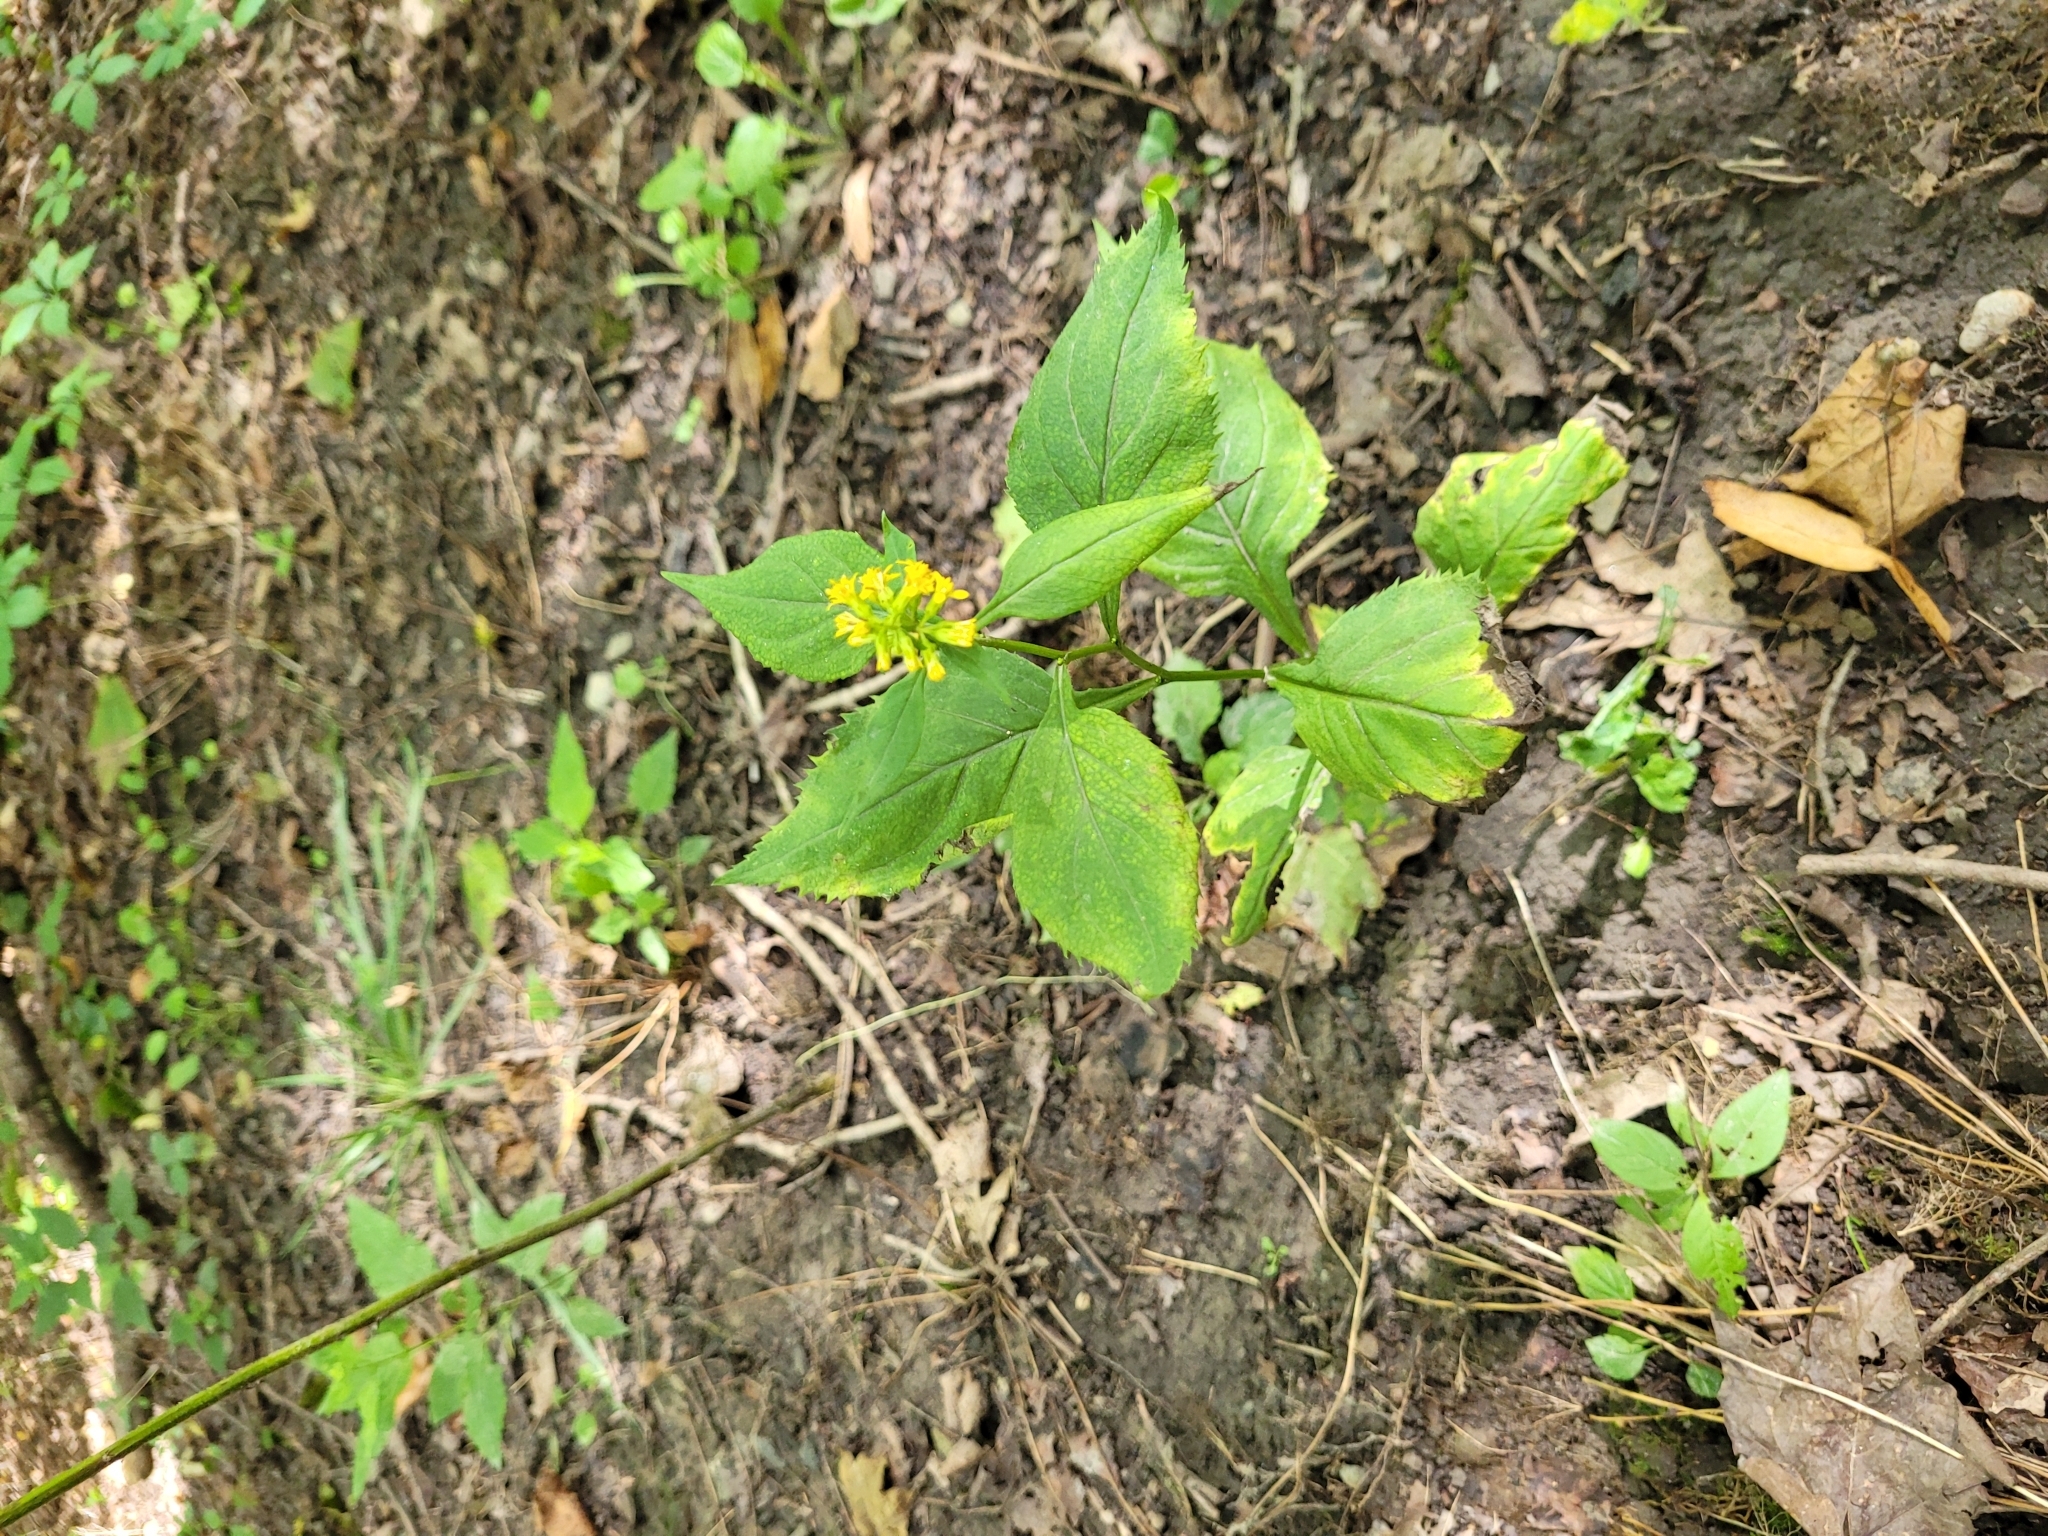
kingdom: Plantae
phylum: Tracheophyta
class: Magnoliopsida
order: Asterales
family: Asteraceae
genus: Solidago
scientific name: Solidago flexicaulis
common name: Zig-zag goldenrod
